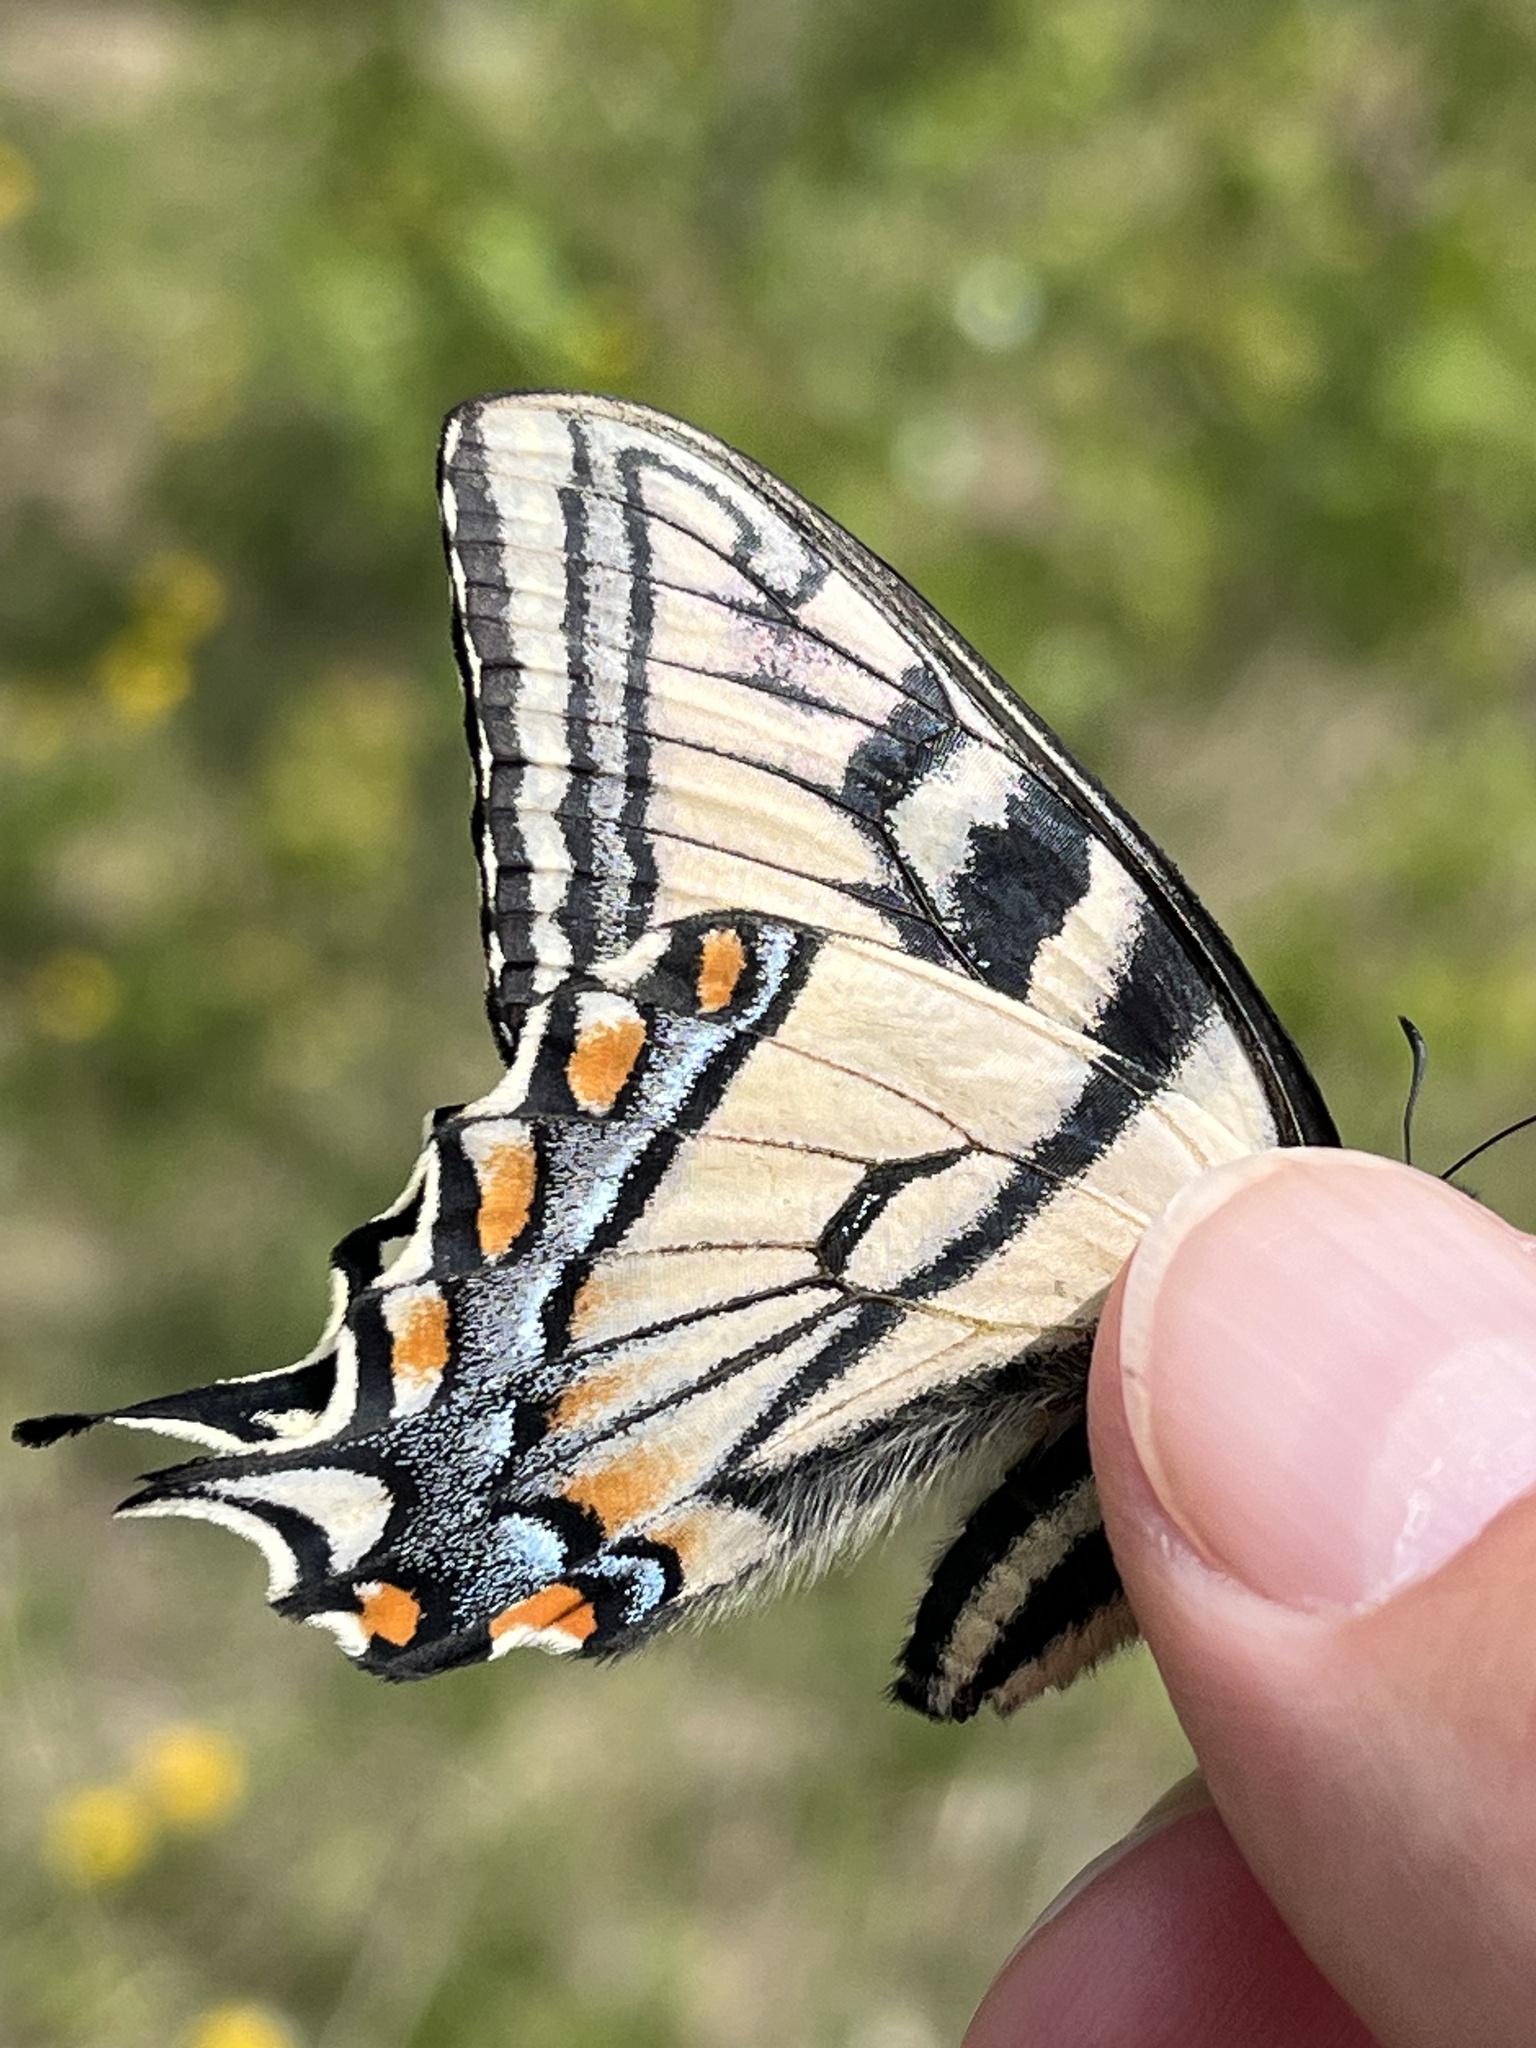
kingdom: Animalia
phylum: Arthropoda
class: Insecta
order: Lepidoptera
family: Papilionidae
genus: Papilio
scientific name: Papilio canadensis
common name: Canadian tiger swallowtail
